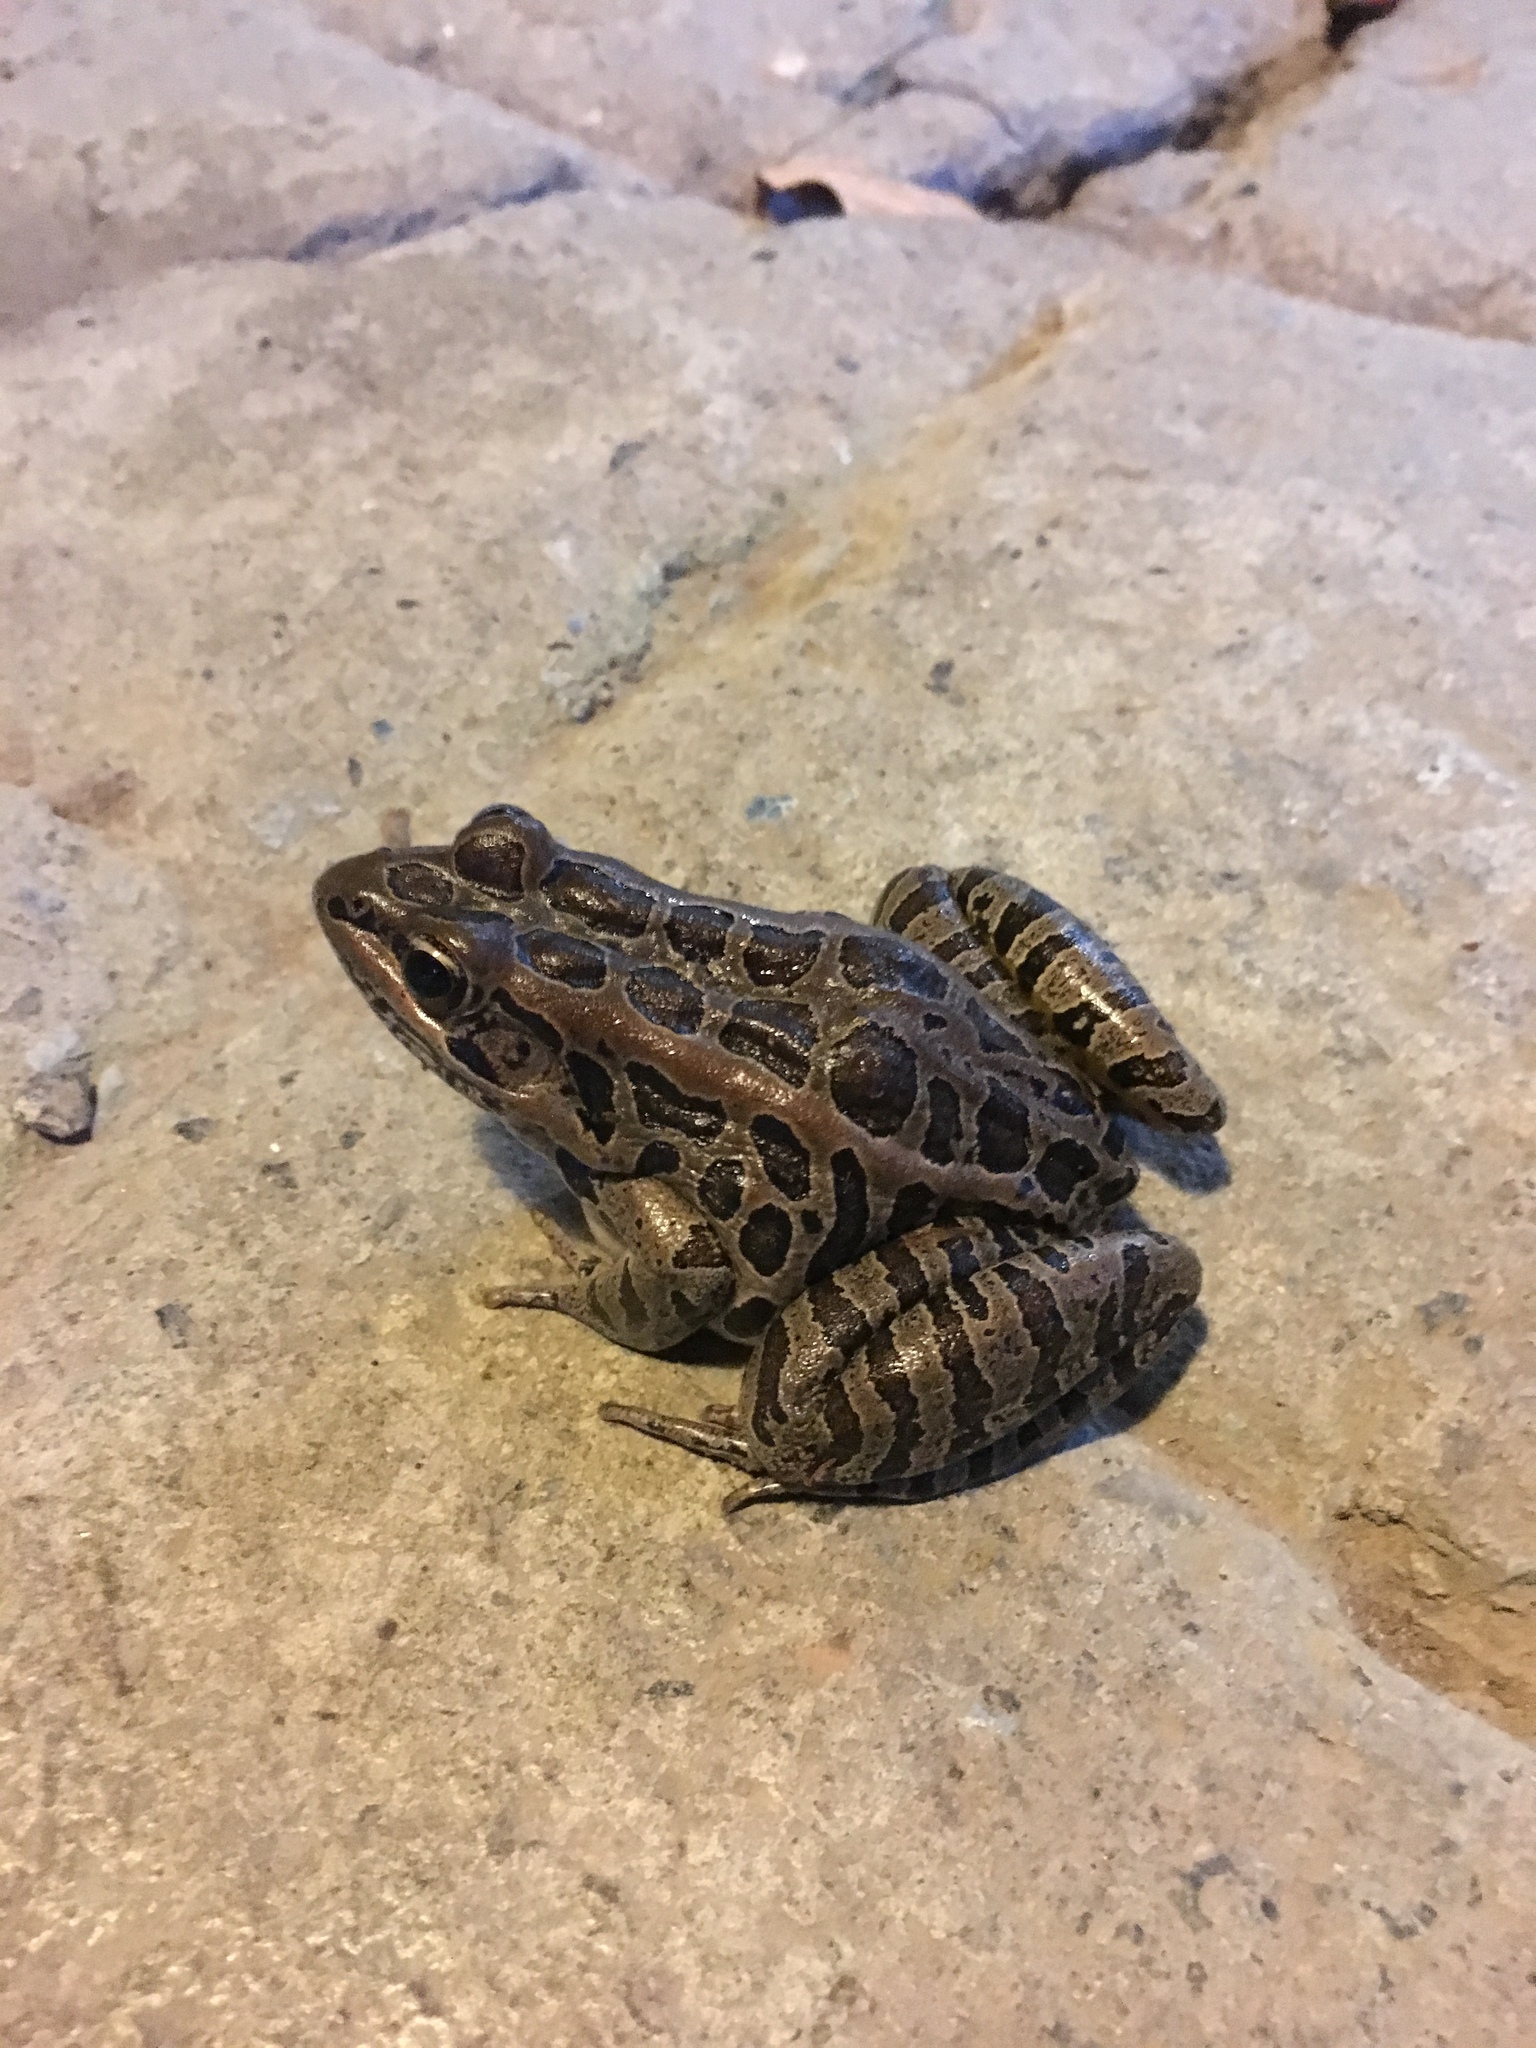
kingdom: Animalia
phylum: Chordata
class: Amphibia
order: Anura
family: Ranidae
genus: Lithobates
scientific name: Lithobates palustris
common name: Pickerel frog
